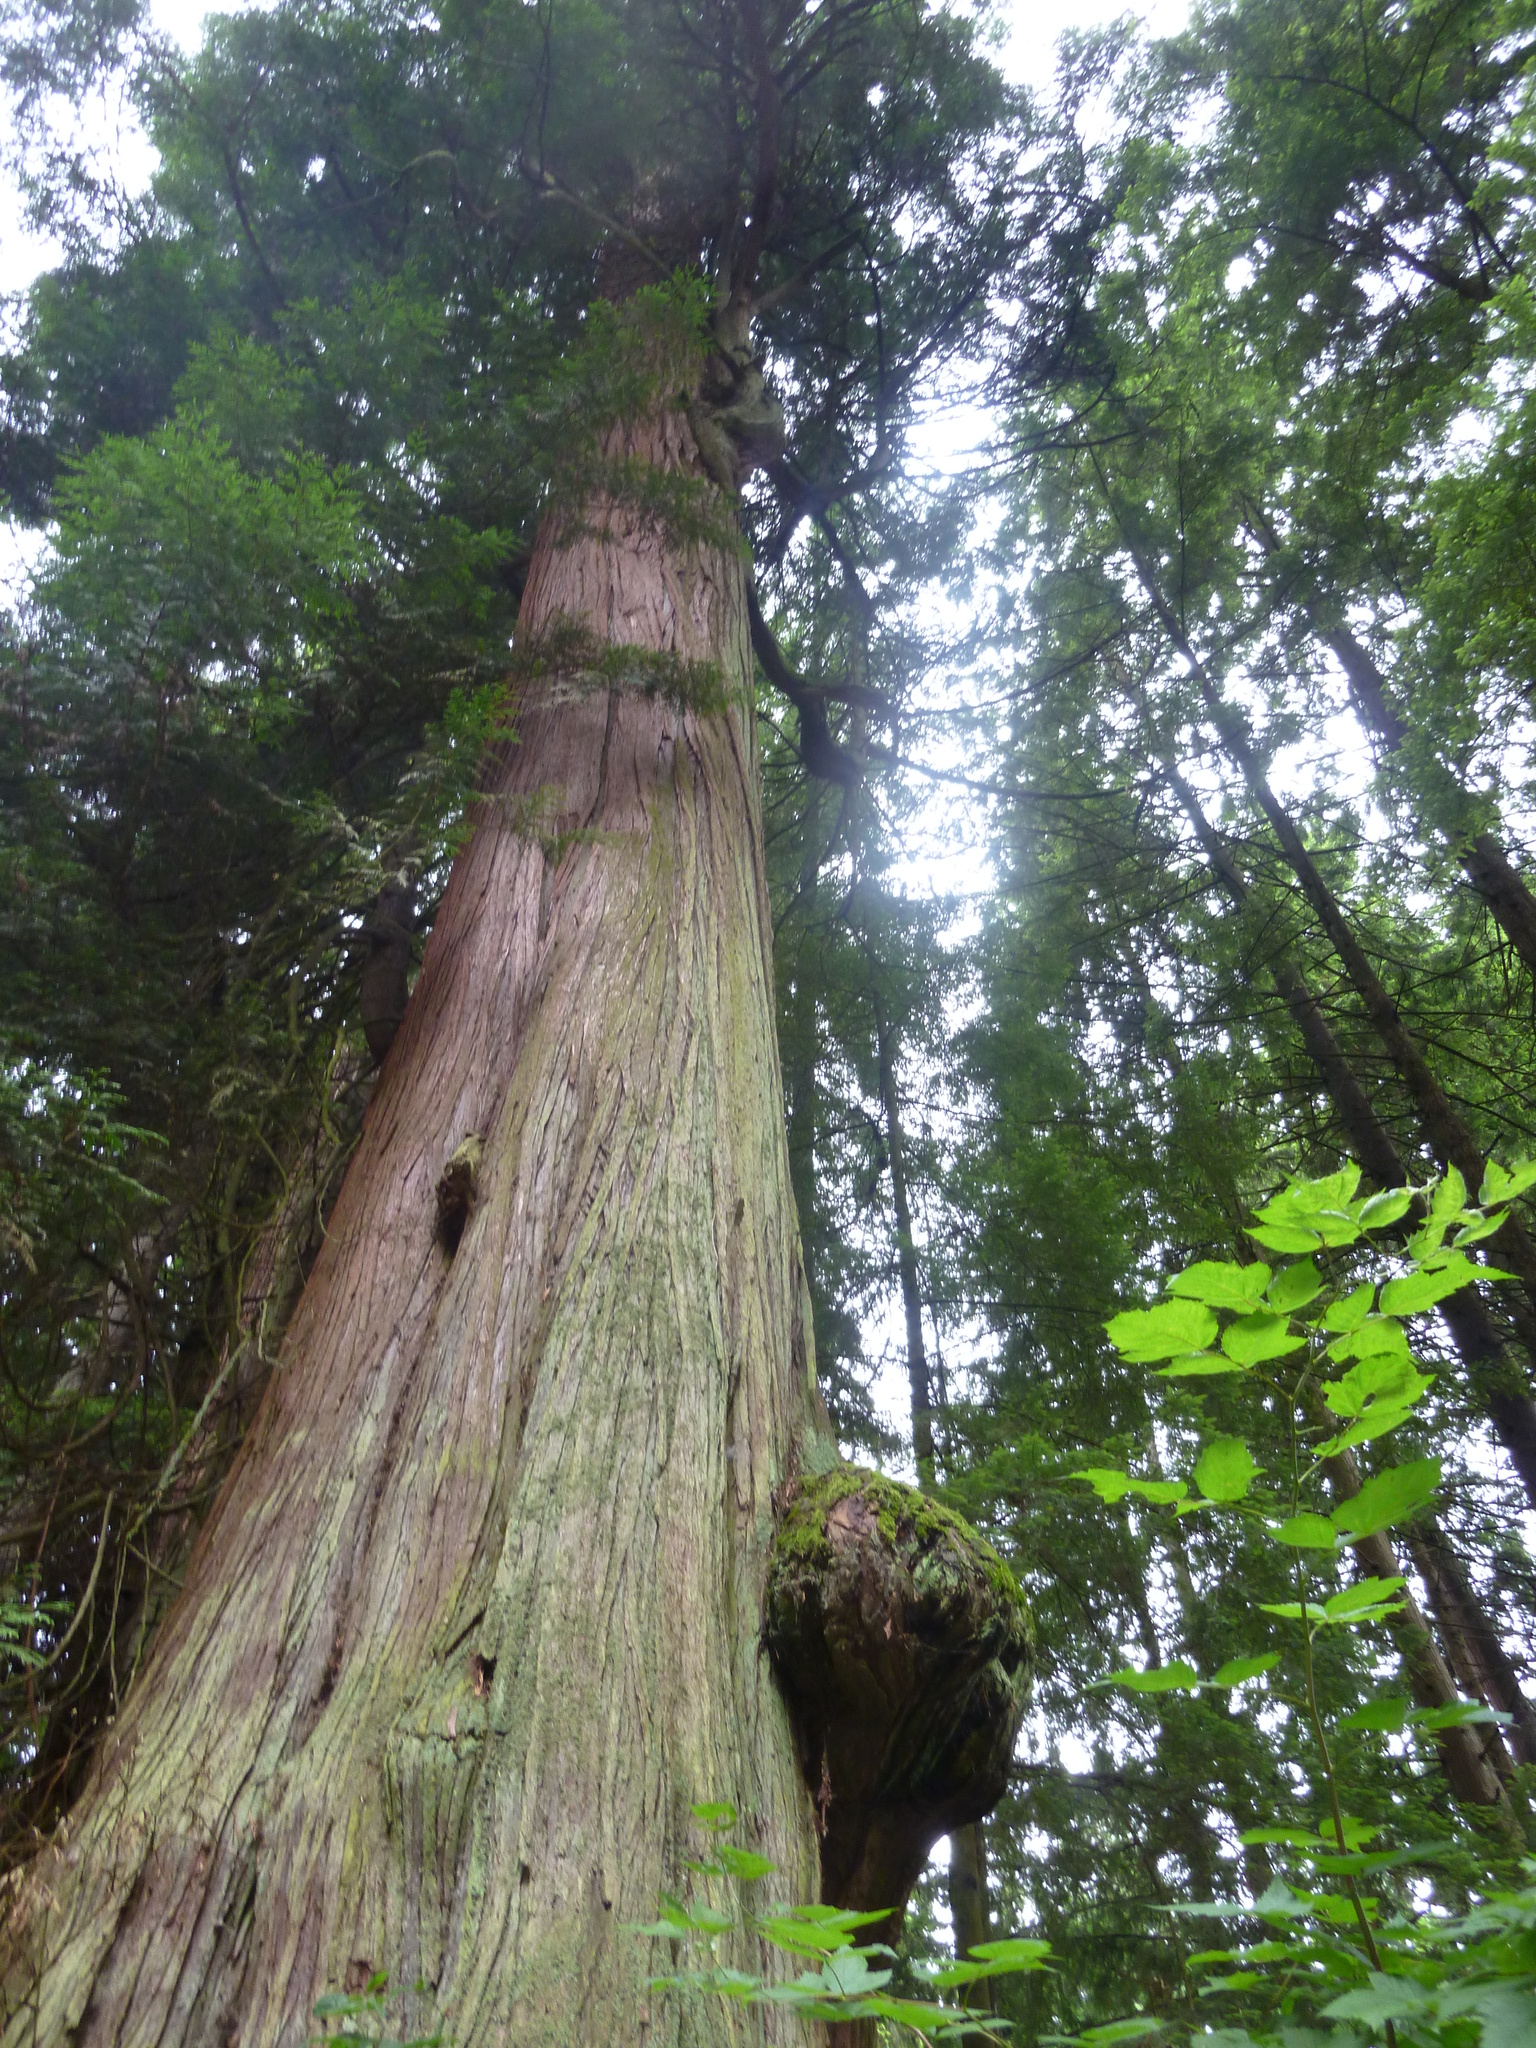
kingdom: Plantae
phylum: Tracheophyta
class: Pinopsida
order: Pinales
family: Cupressaceae
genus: Thuja
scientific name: Thuja plicata
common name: Western red-cedar
